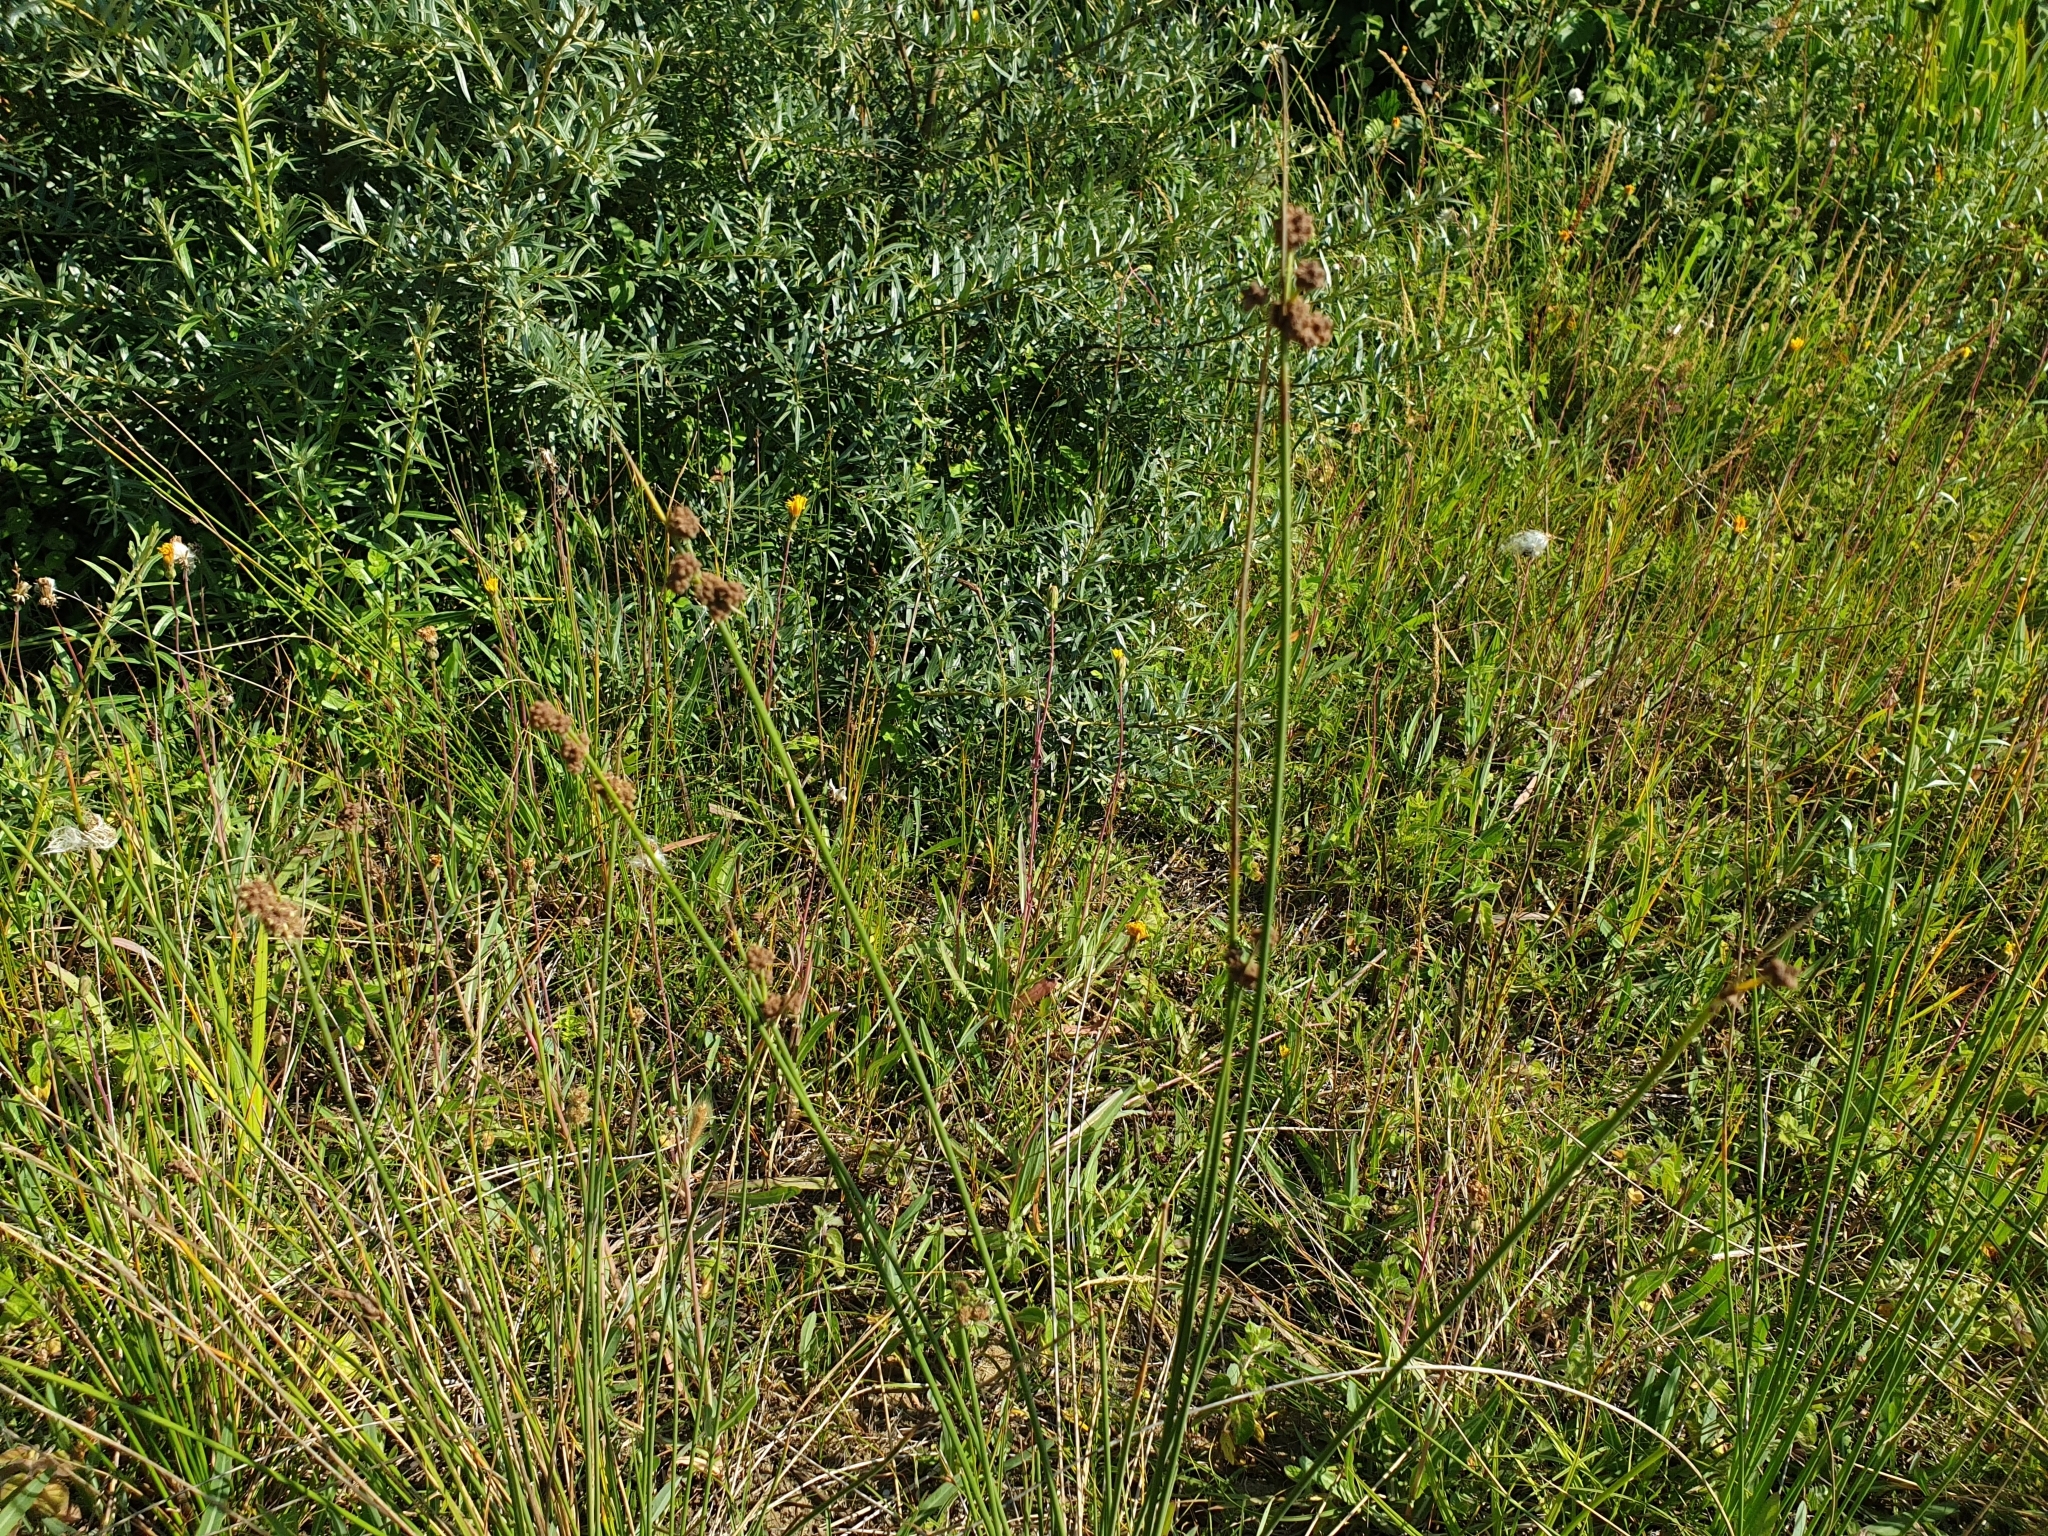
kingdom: Plantae
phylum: Tracheophyta
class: Liliopsida
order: Poales
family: Cyperaceae
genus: Scirpoides
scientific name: Scirpoides holoschoenus
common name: Round-headed club-rush
